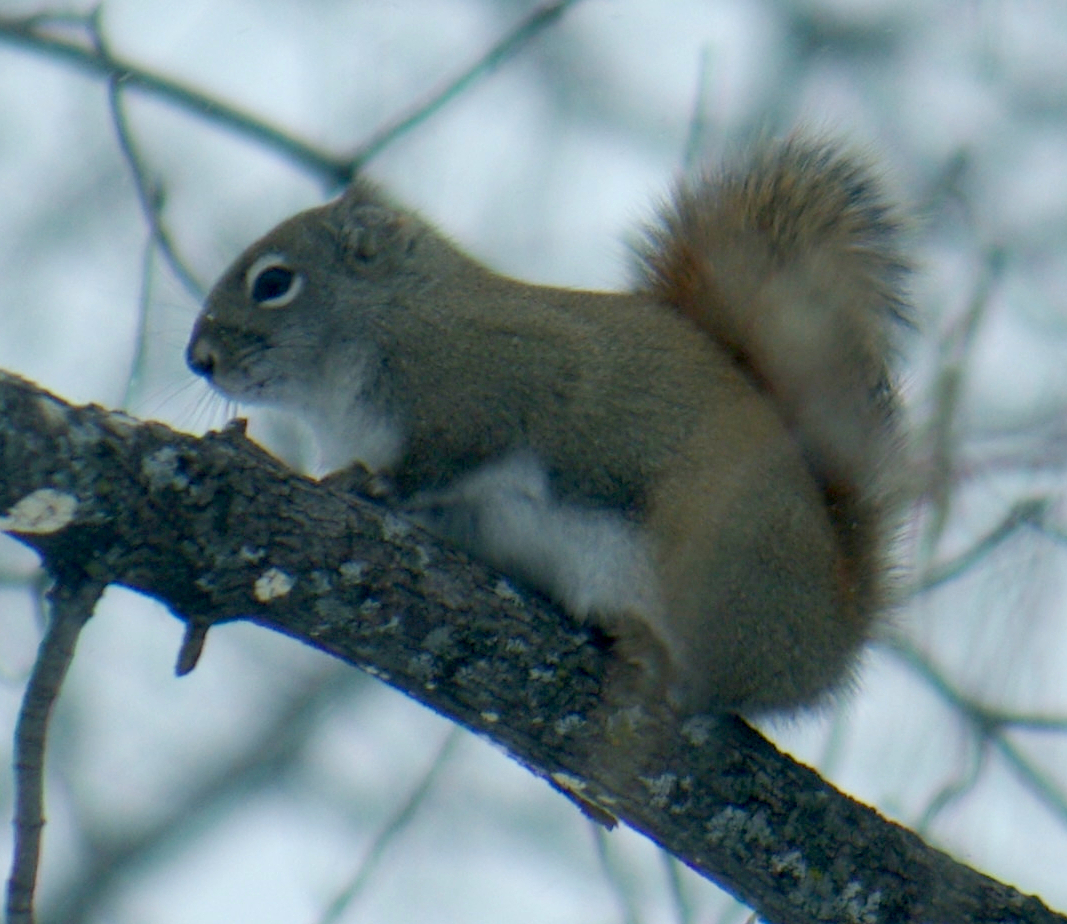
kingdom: Animalia
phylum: Chordata
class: Mammalia
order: Rodentia
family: Sciuridae
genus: Tamiasciurus
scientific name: Tamiasciurus hudsonicus
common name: Red squirrel
